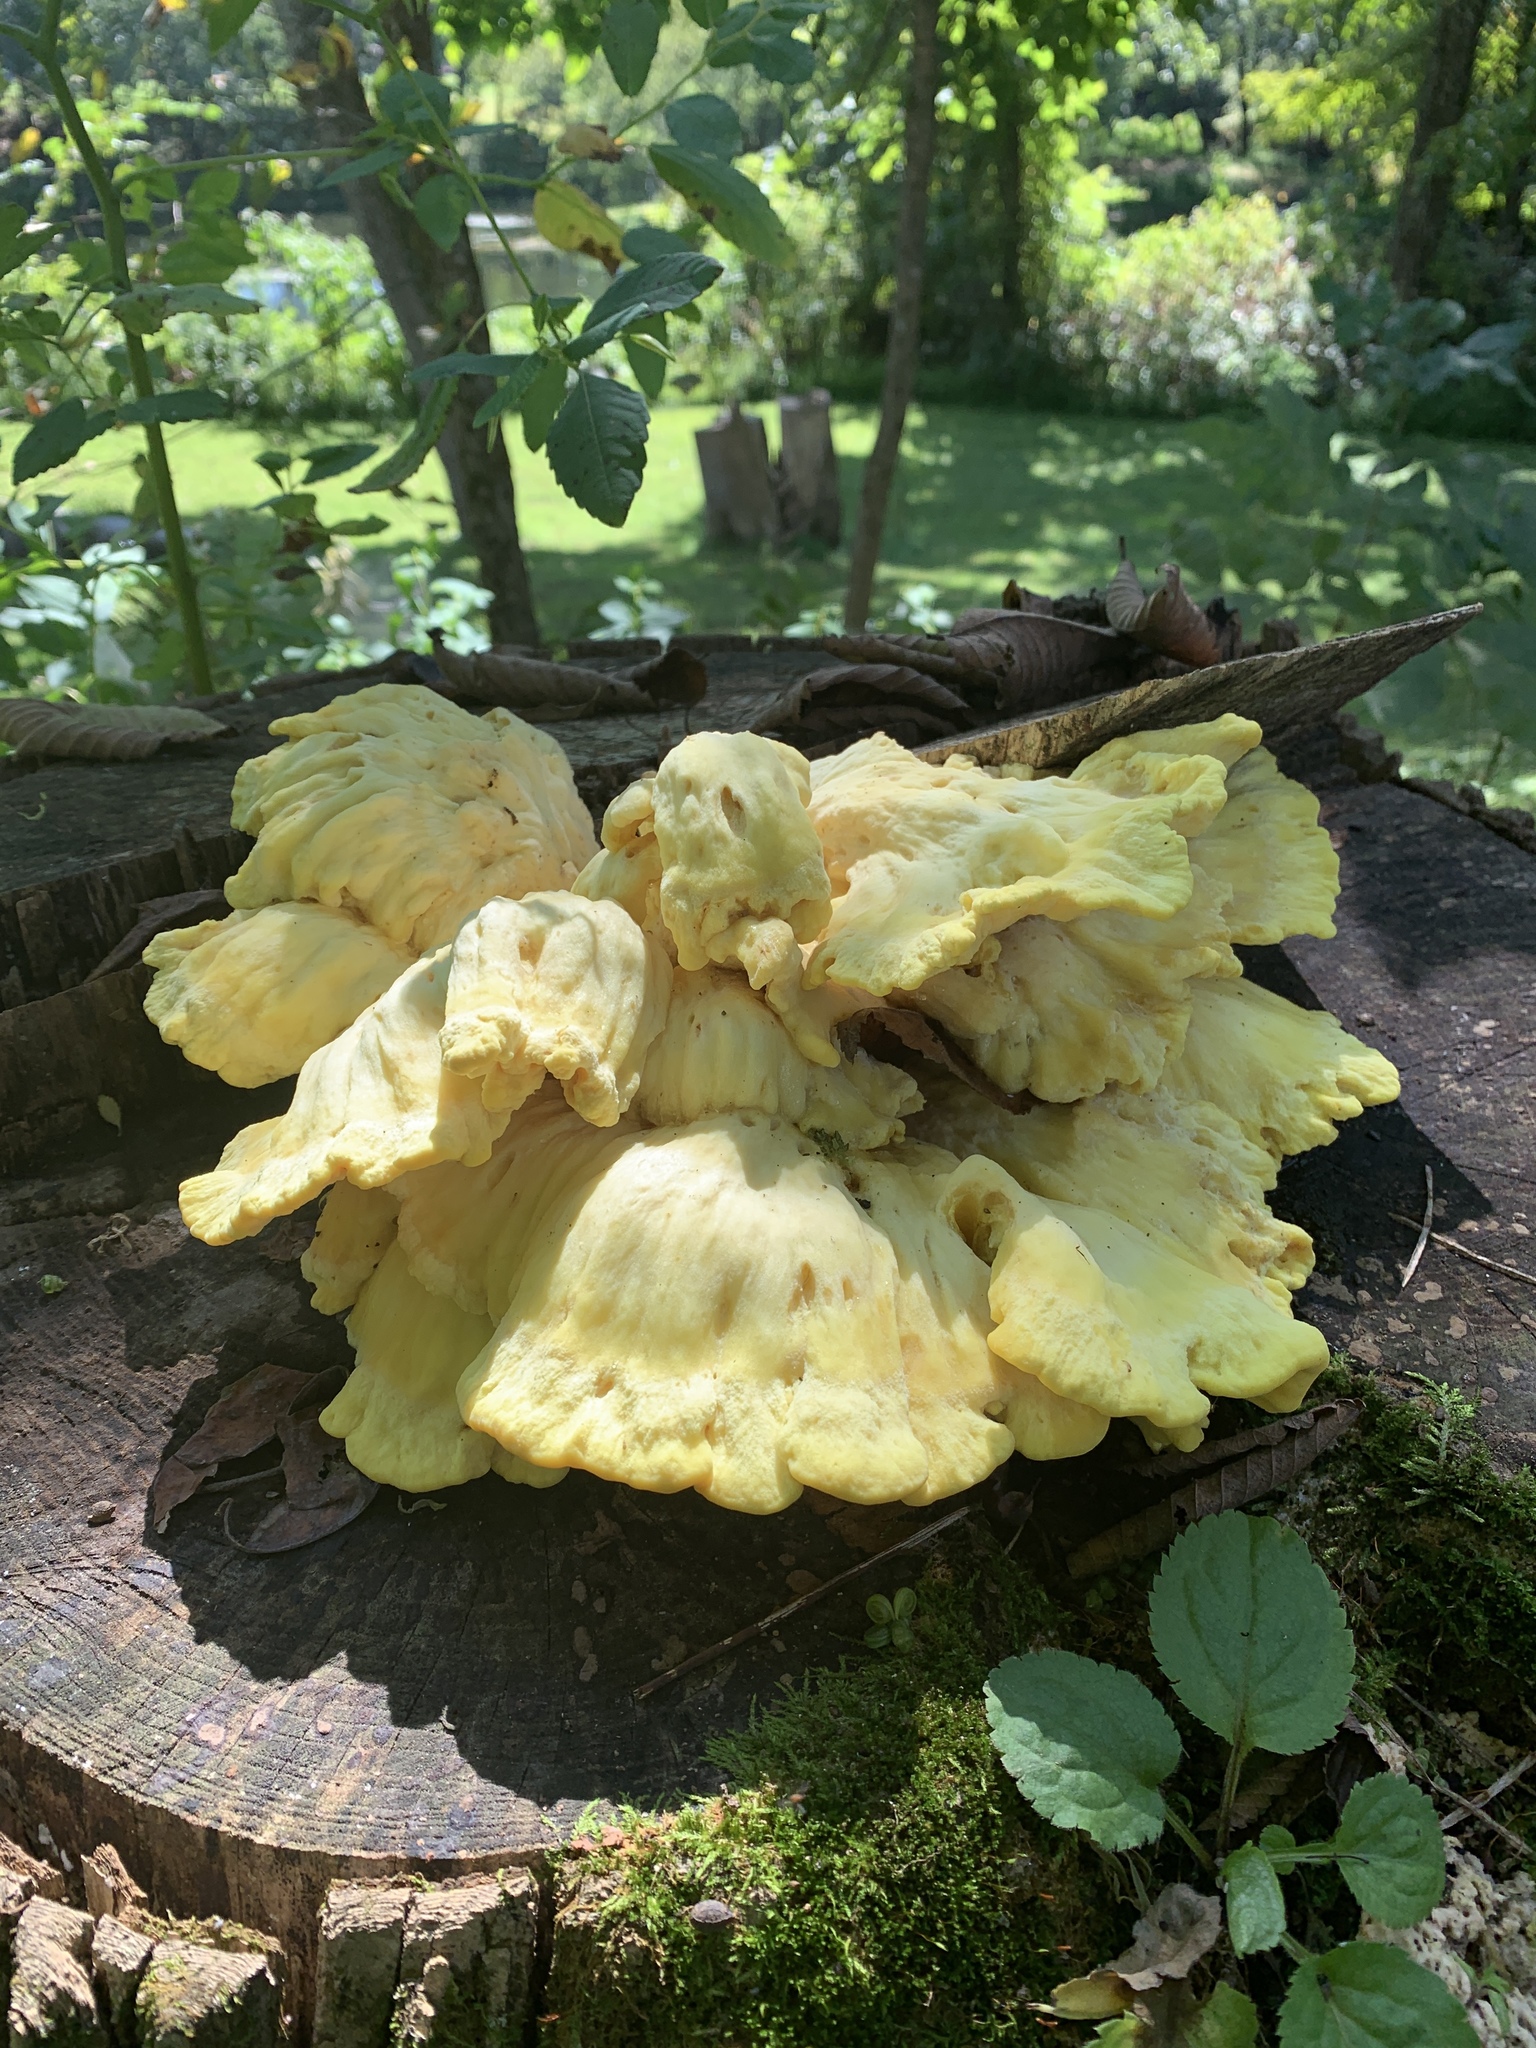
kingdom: Fungi
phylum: Basidiomycota
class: Agaricomycetes
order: Polyporales
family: Laetiporaceae
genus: Laetiporus
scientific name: Laetiporus sulphureus
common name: Chicken of the woods
